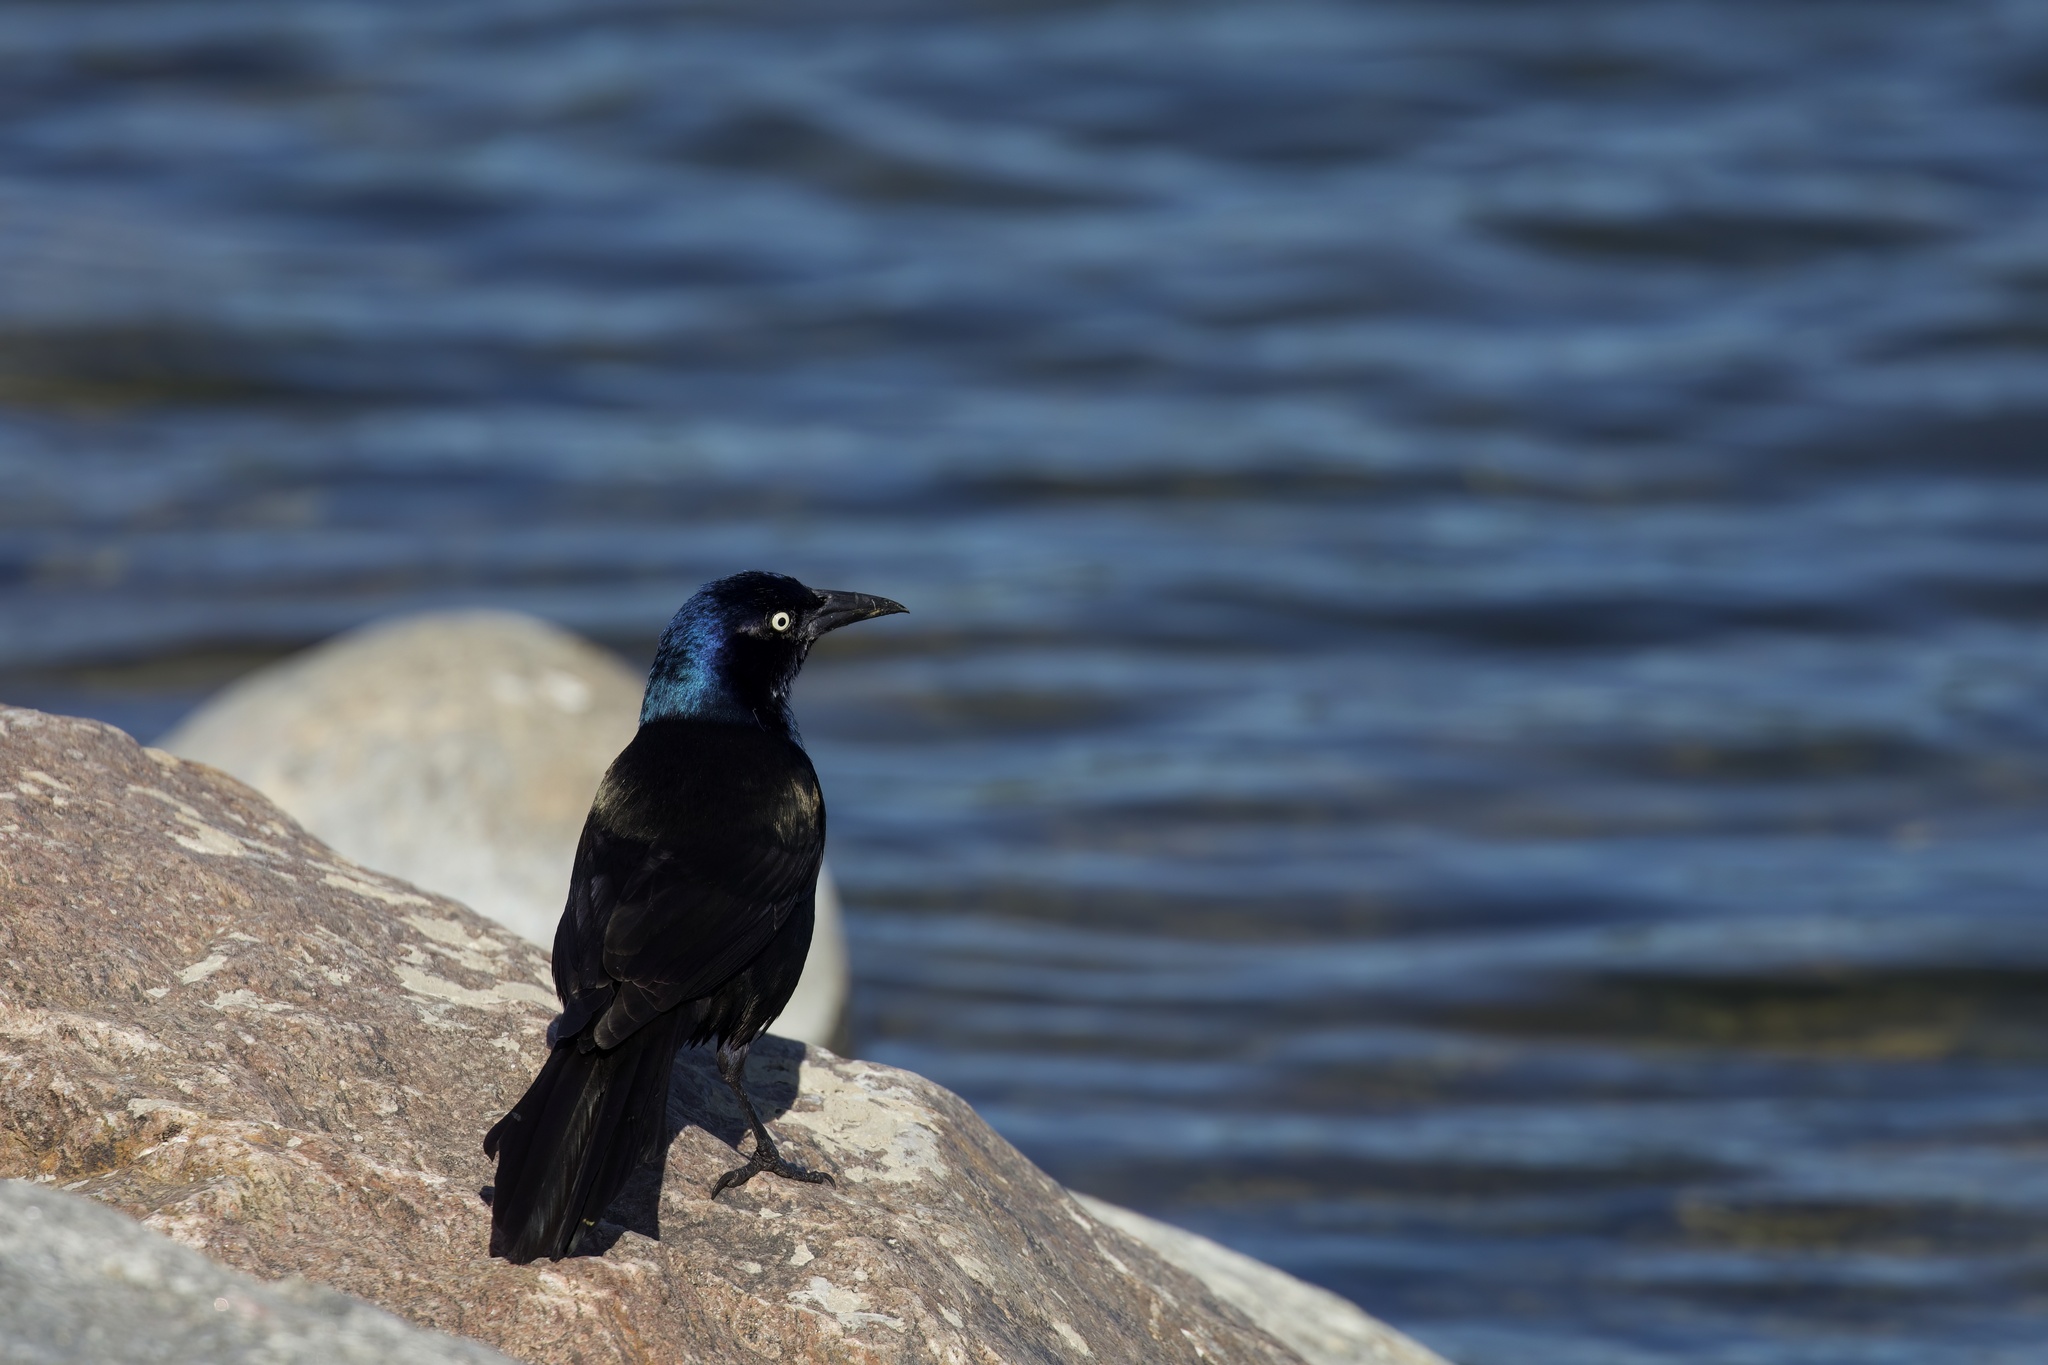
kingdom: Animalia
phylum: Chordata
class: Aves
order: Passeriformes
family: Icteridae
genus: Quiscalus
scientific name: Quiscalus quiscula
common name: Common grackle
